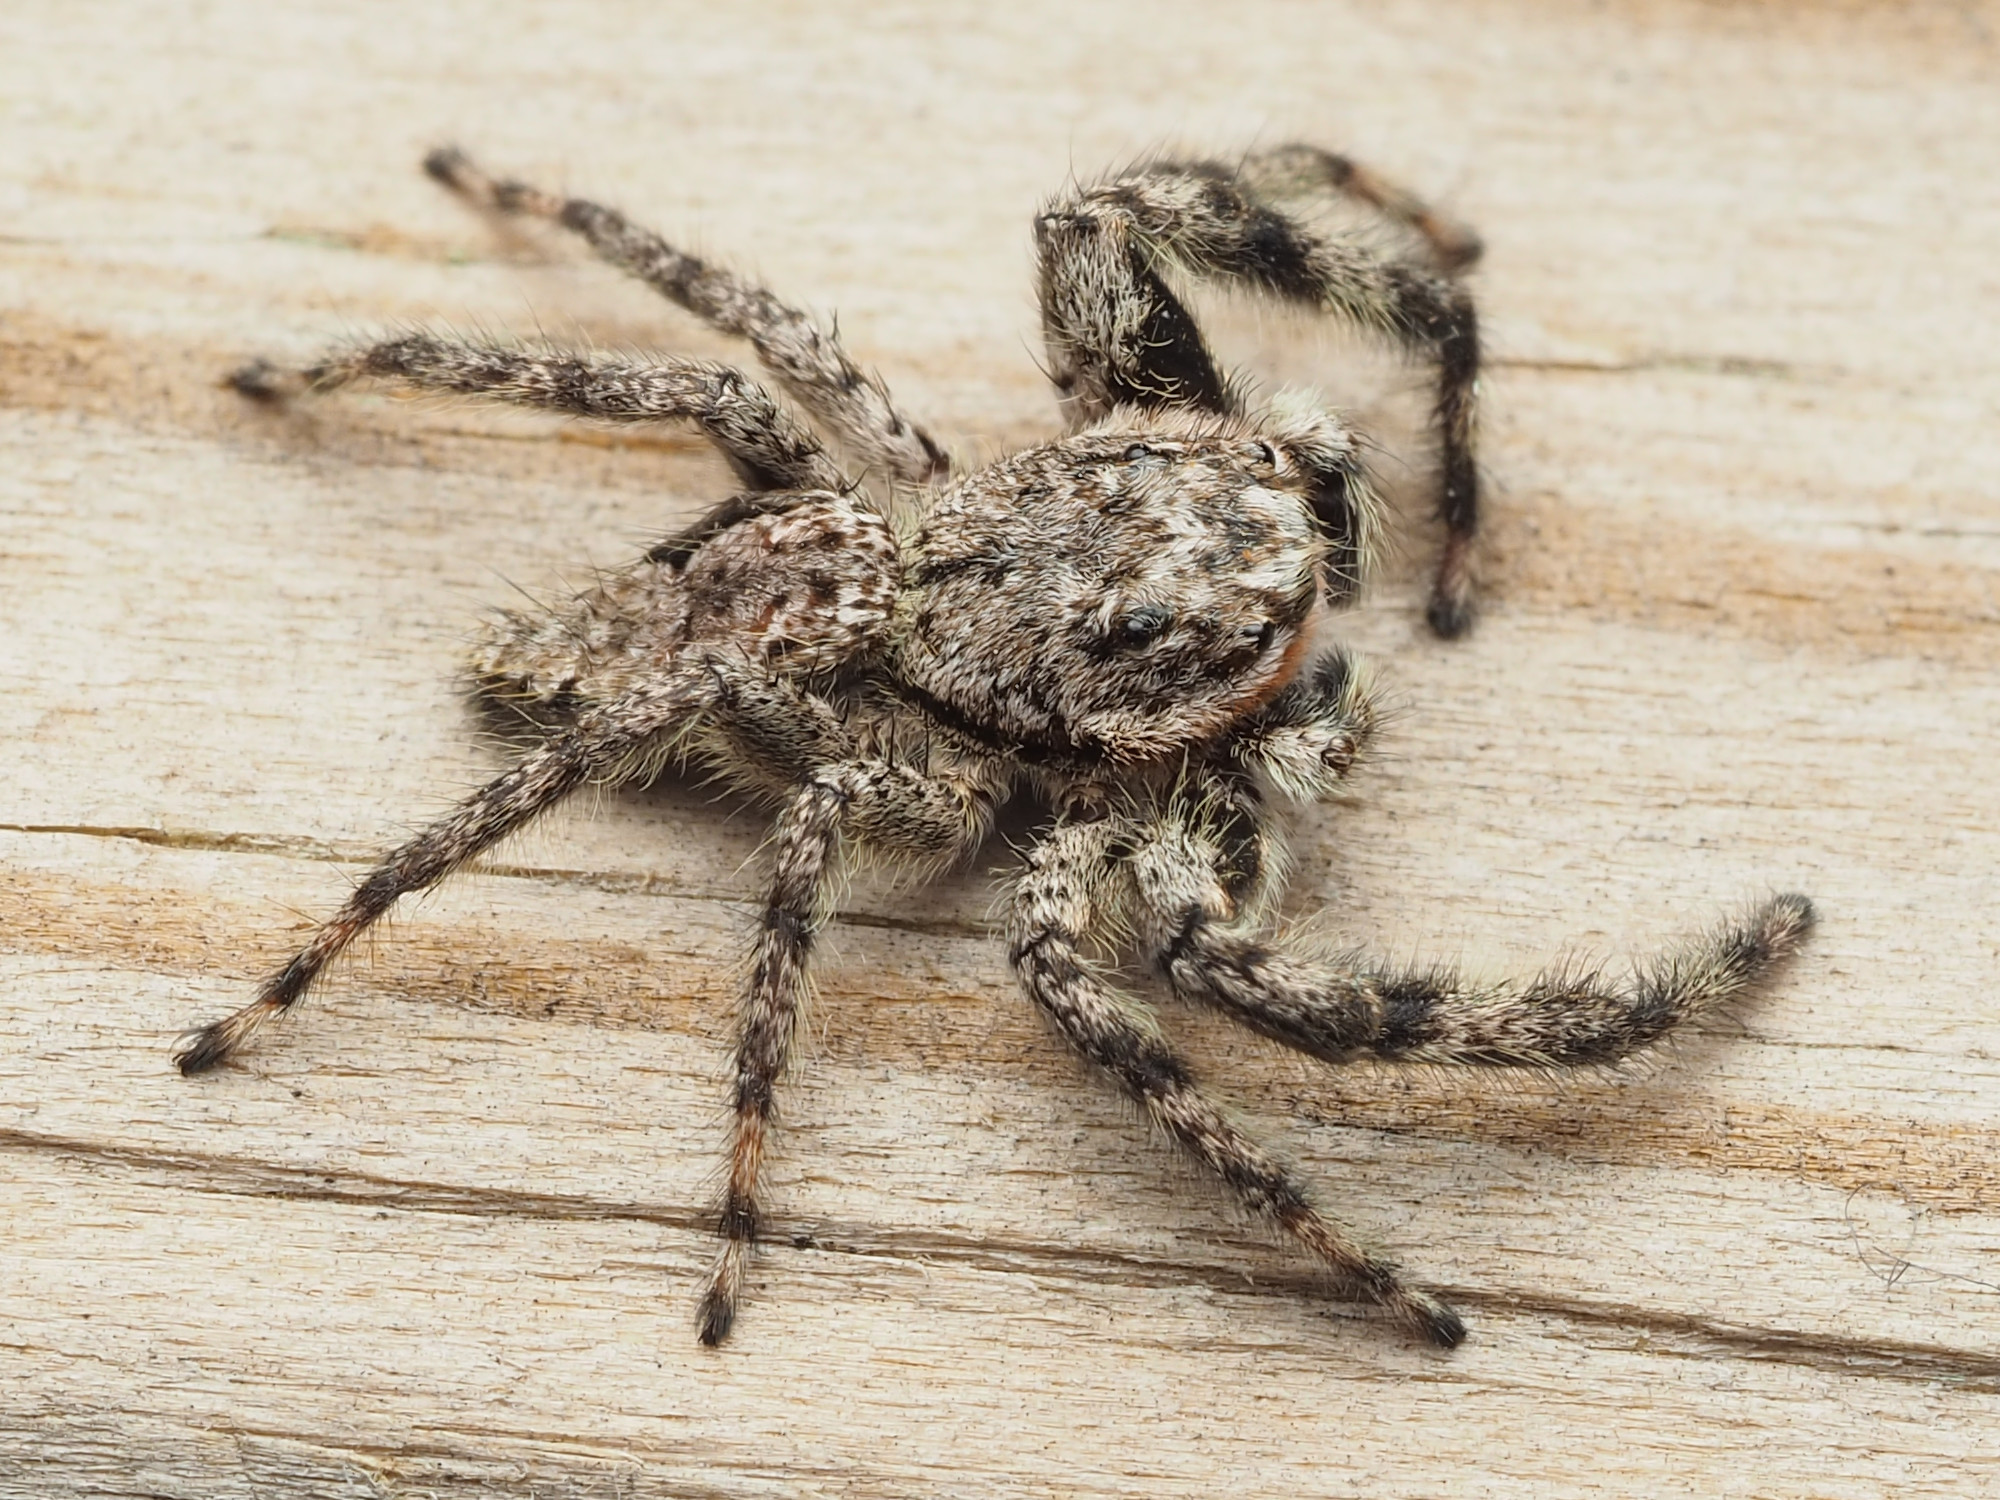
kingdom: Animalia
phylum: Arthropoda
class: Arachnida
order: Araneae
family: Salticidae
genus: Platycryptus
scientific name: Platycryptus undatus
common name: Tan jumping spider
